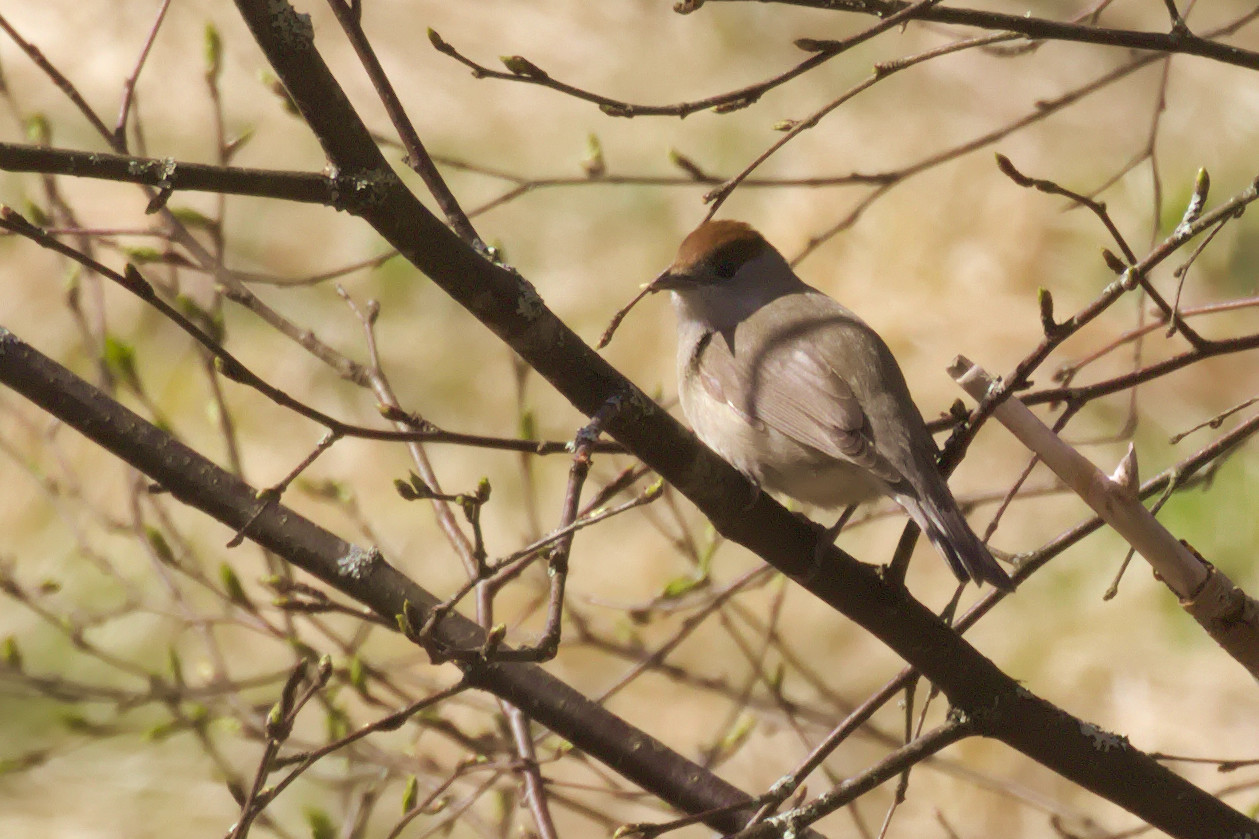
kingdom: Animalia
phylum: Chordata
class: Aves
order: Passeriformes
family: Sylviidae
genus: Sylvia
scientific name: Sylvia atricapilla
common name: Eurasian blackcap
